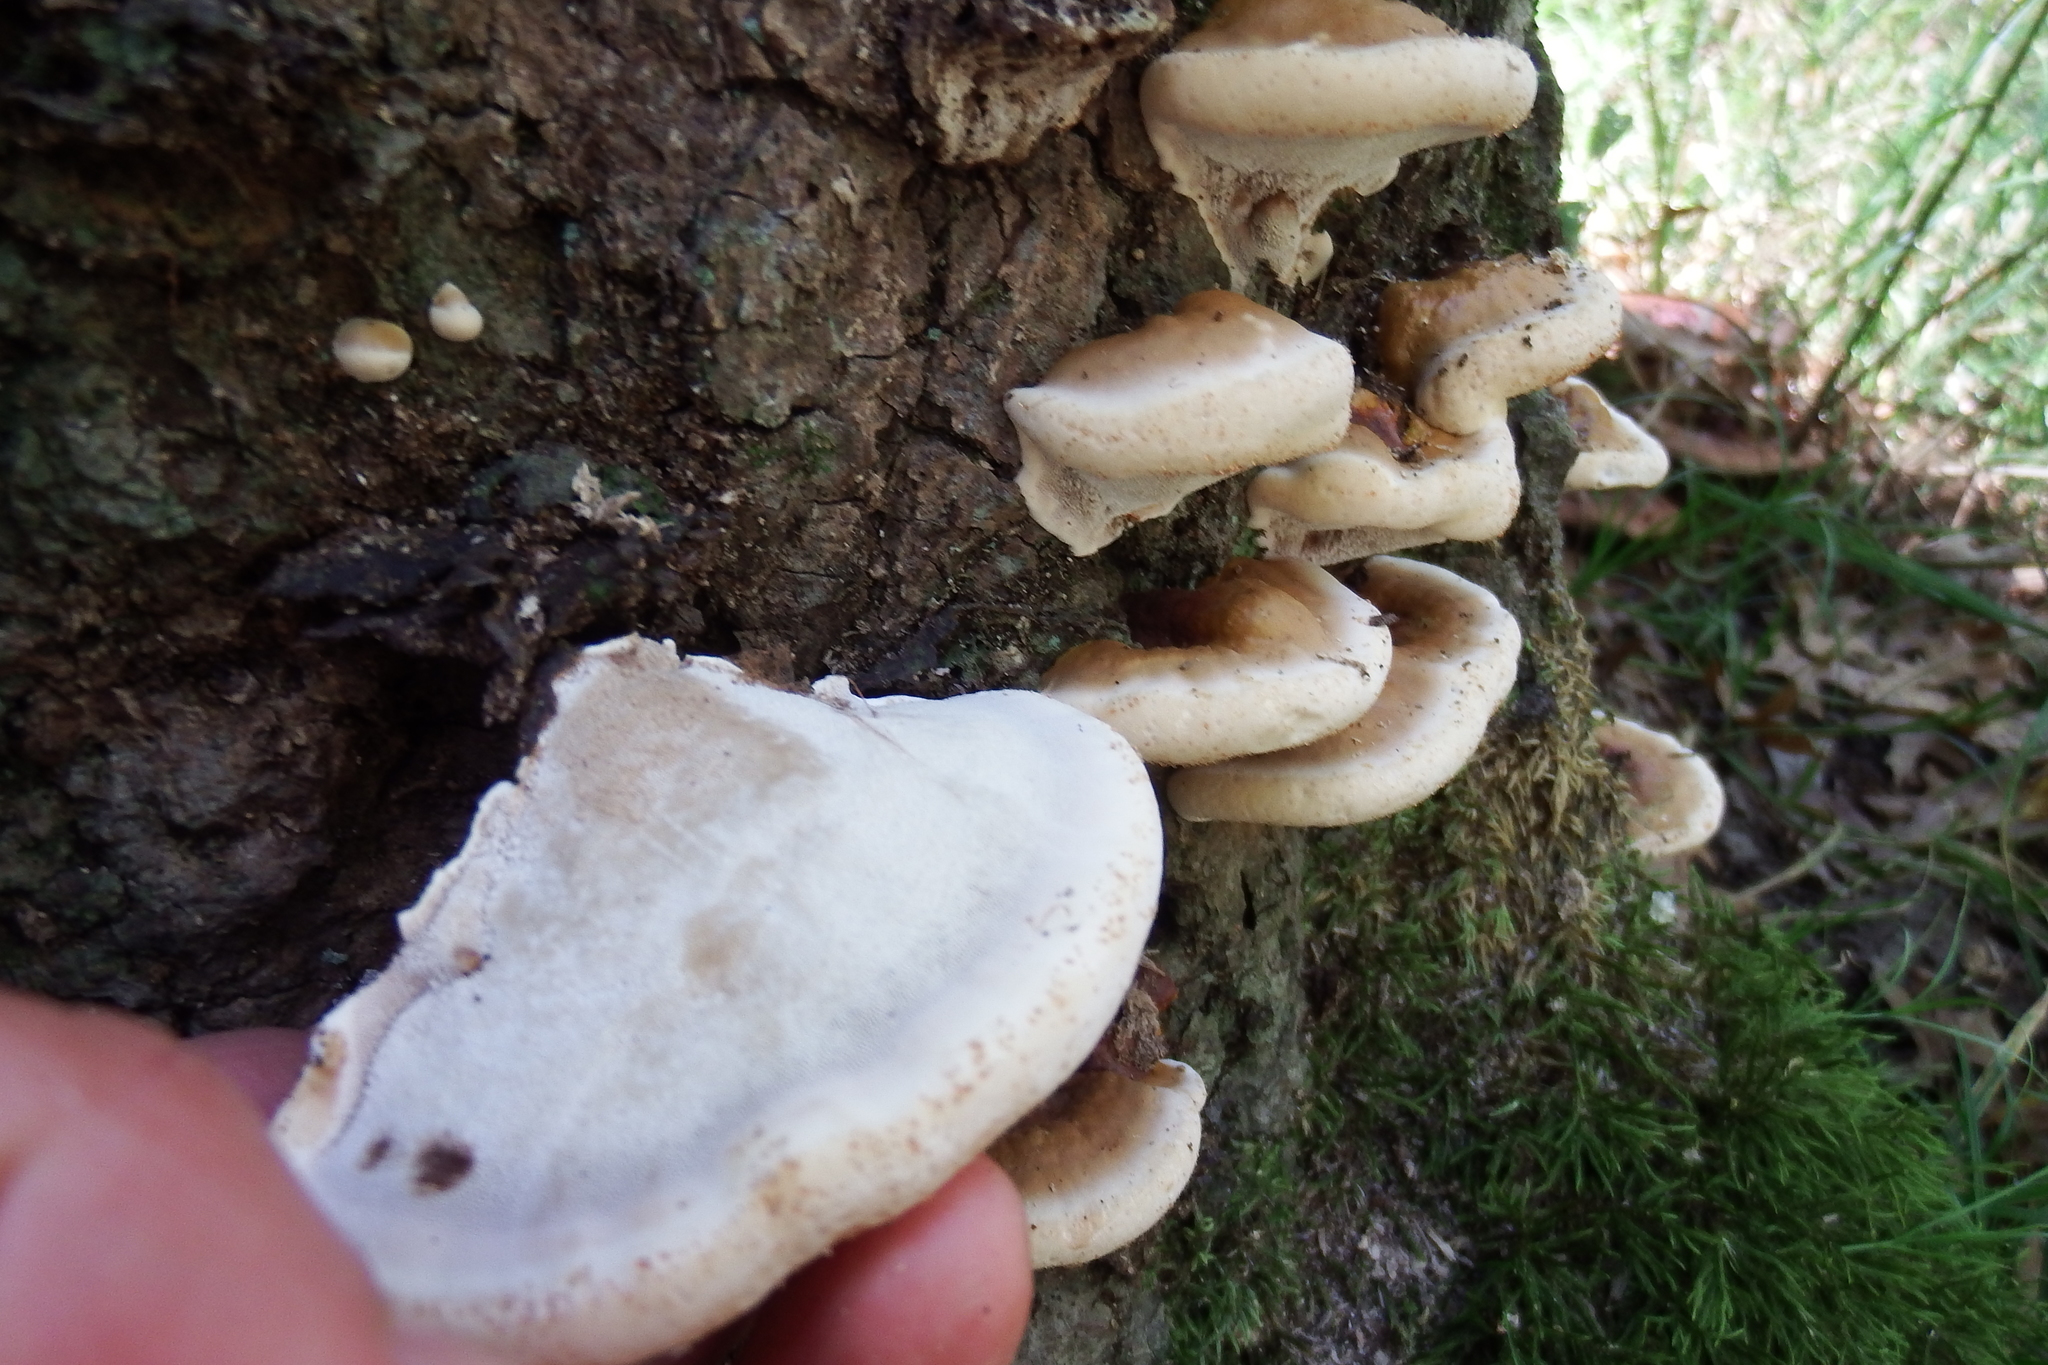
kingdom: Fungi
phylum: Basidiomycota
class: Agaricomycetes
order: Polyporales
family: Polyporaceae
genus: Ganoderma
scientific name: Ganoderma resinaceum
